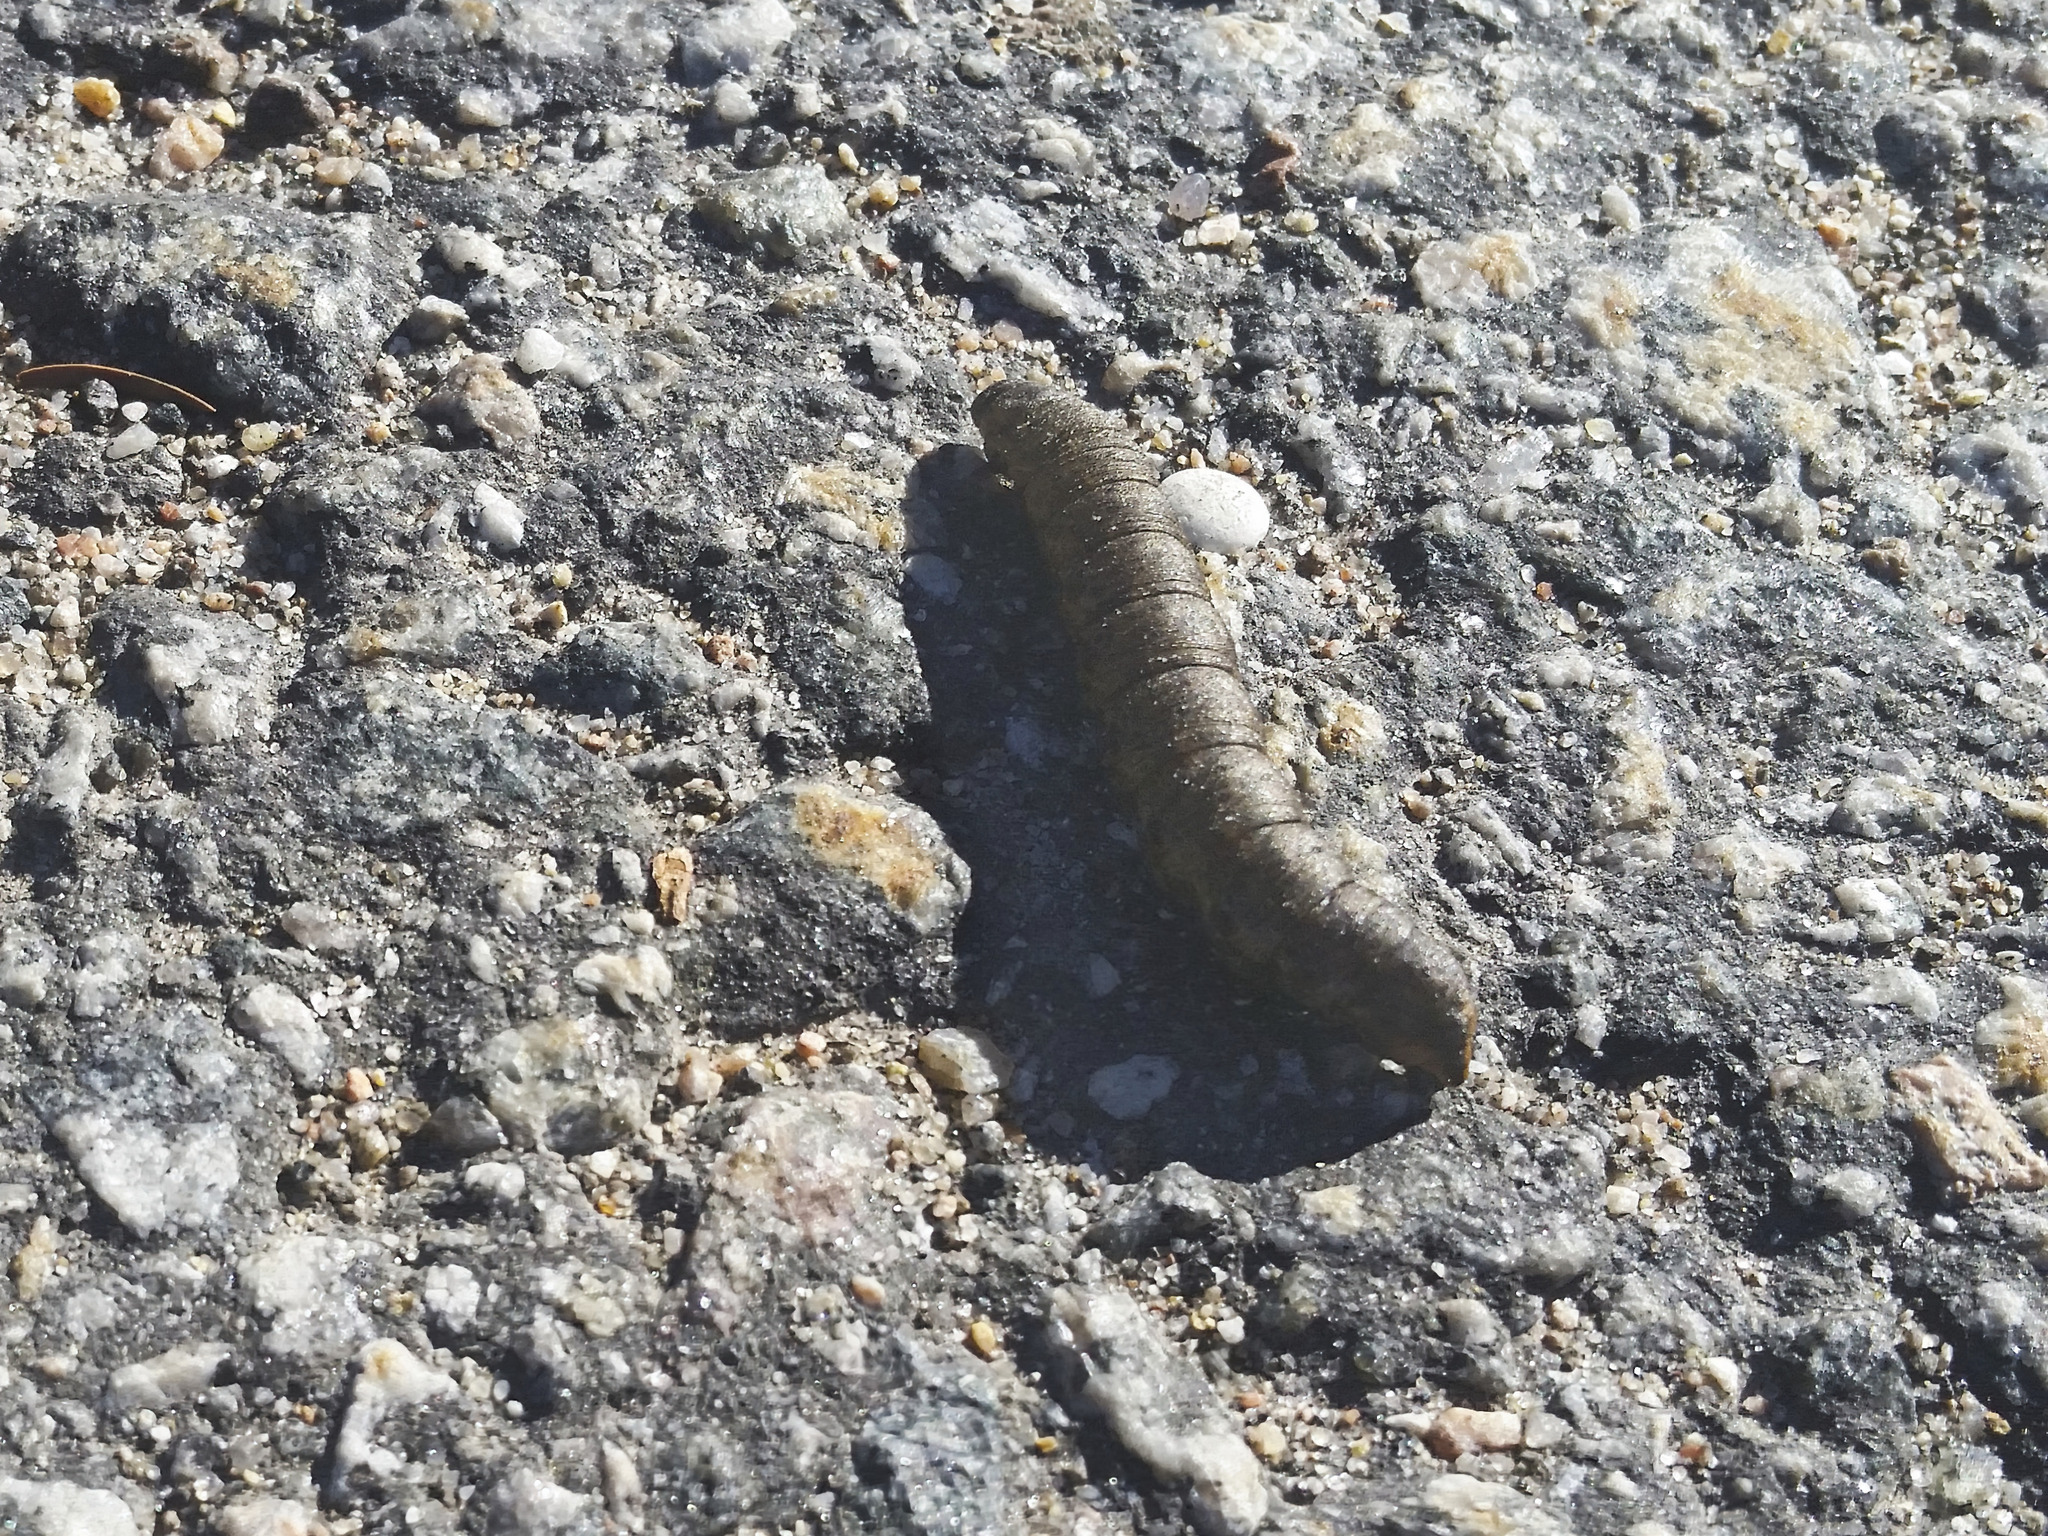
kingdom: Animalia
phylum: Arthropoda
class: Insecta
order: Lepidoptera
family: Noctuidae
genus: Cucullia
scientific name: Cucullia umbratica
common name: Shark
